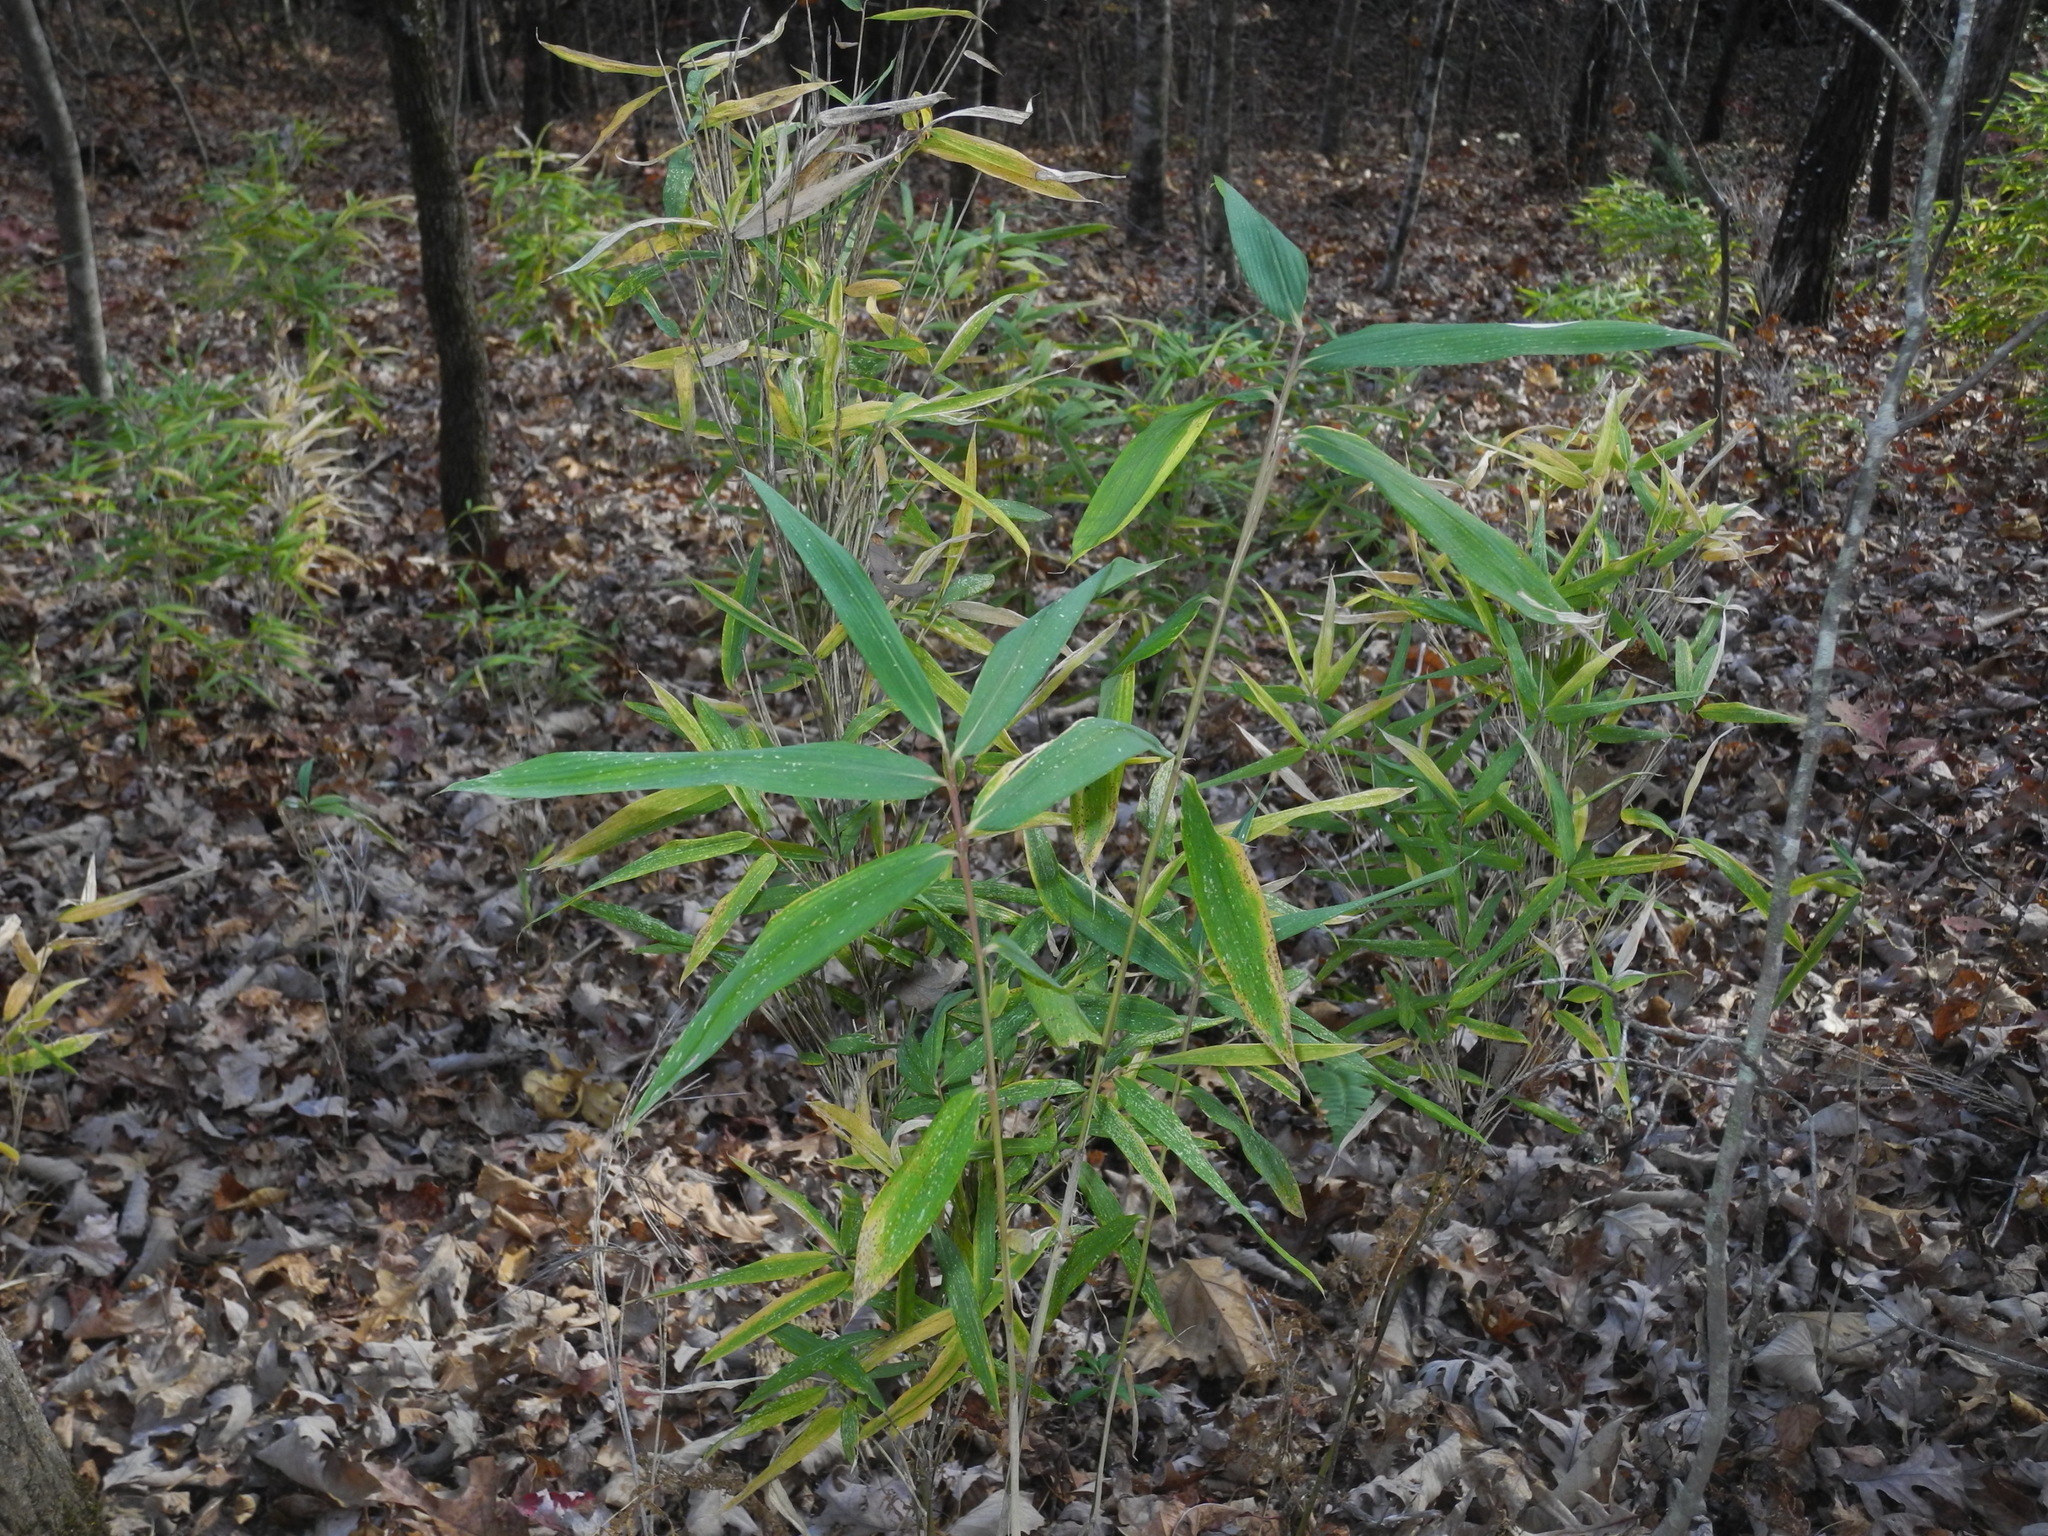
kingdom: Plantae
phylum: Tracheophyta
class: Liliopsida
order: Poales
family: Poaceae
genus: Arundinaria
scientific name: Arundinaria appalachiana
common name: Hill cane
